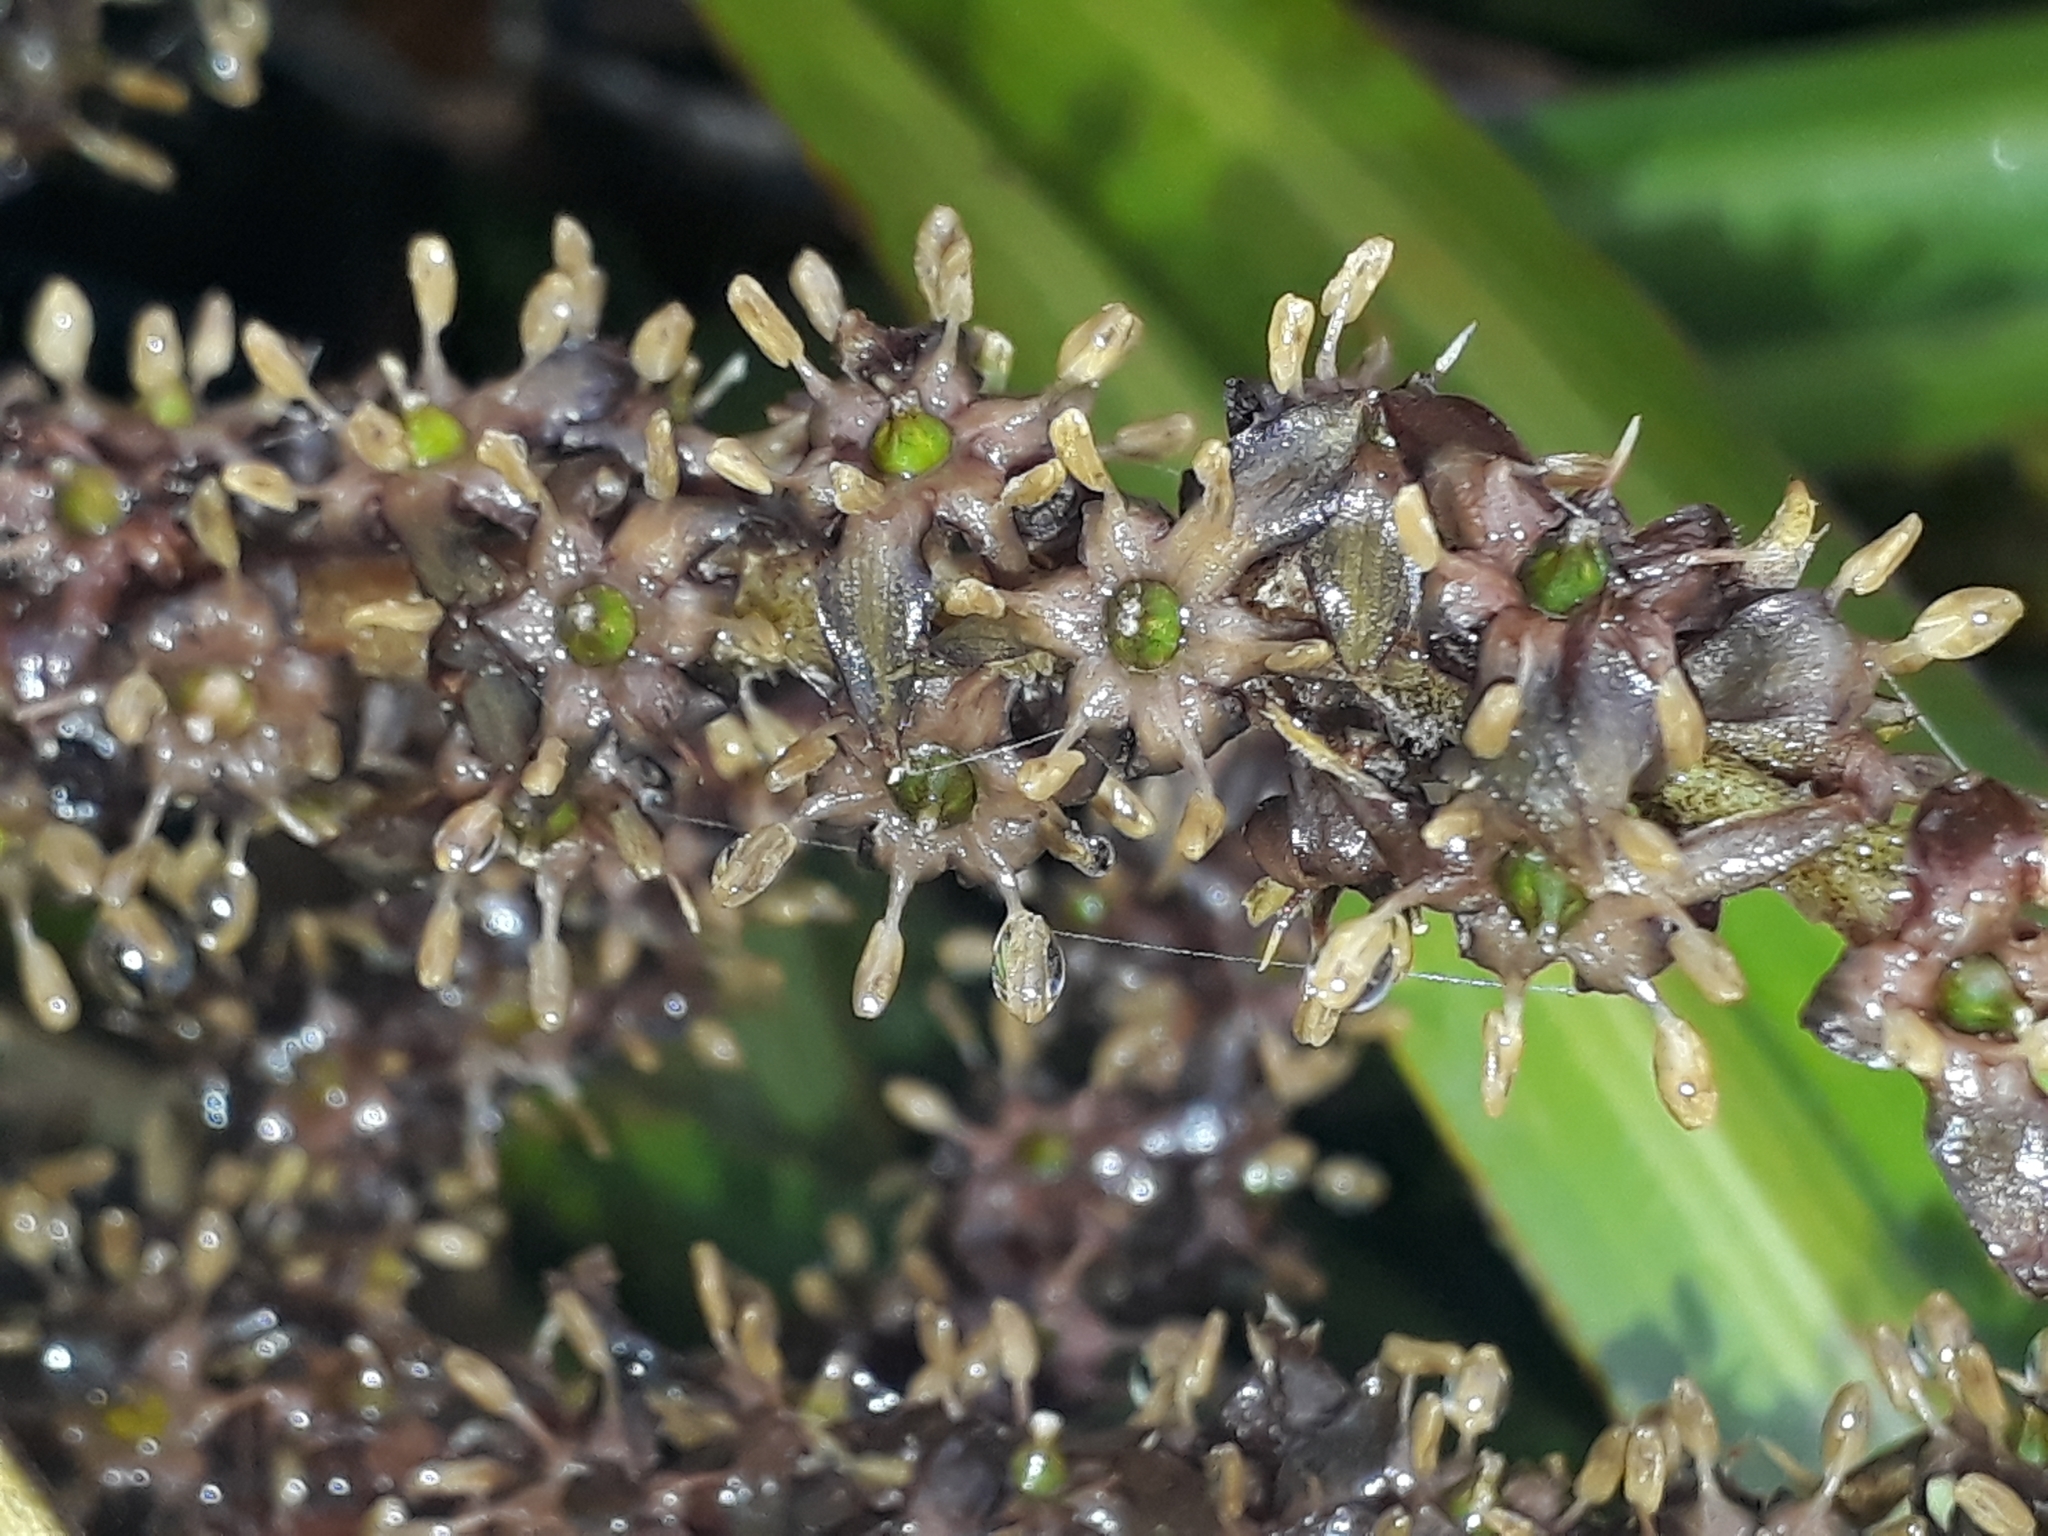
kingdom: Plantae
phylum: Tracheophyta
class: Liliopsida
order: Asparagales
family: Asteliaceae
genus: Astelia
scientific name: Astelia nervosa
